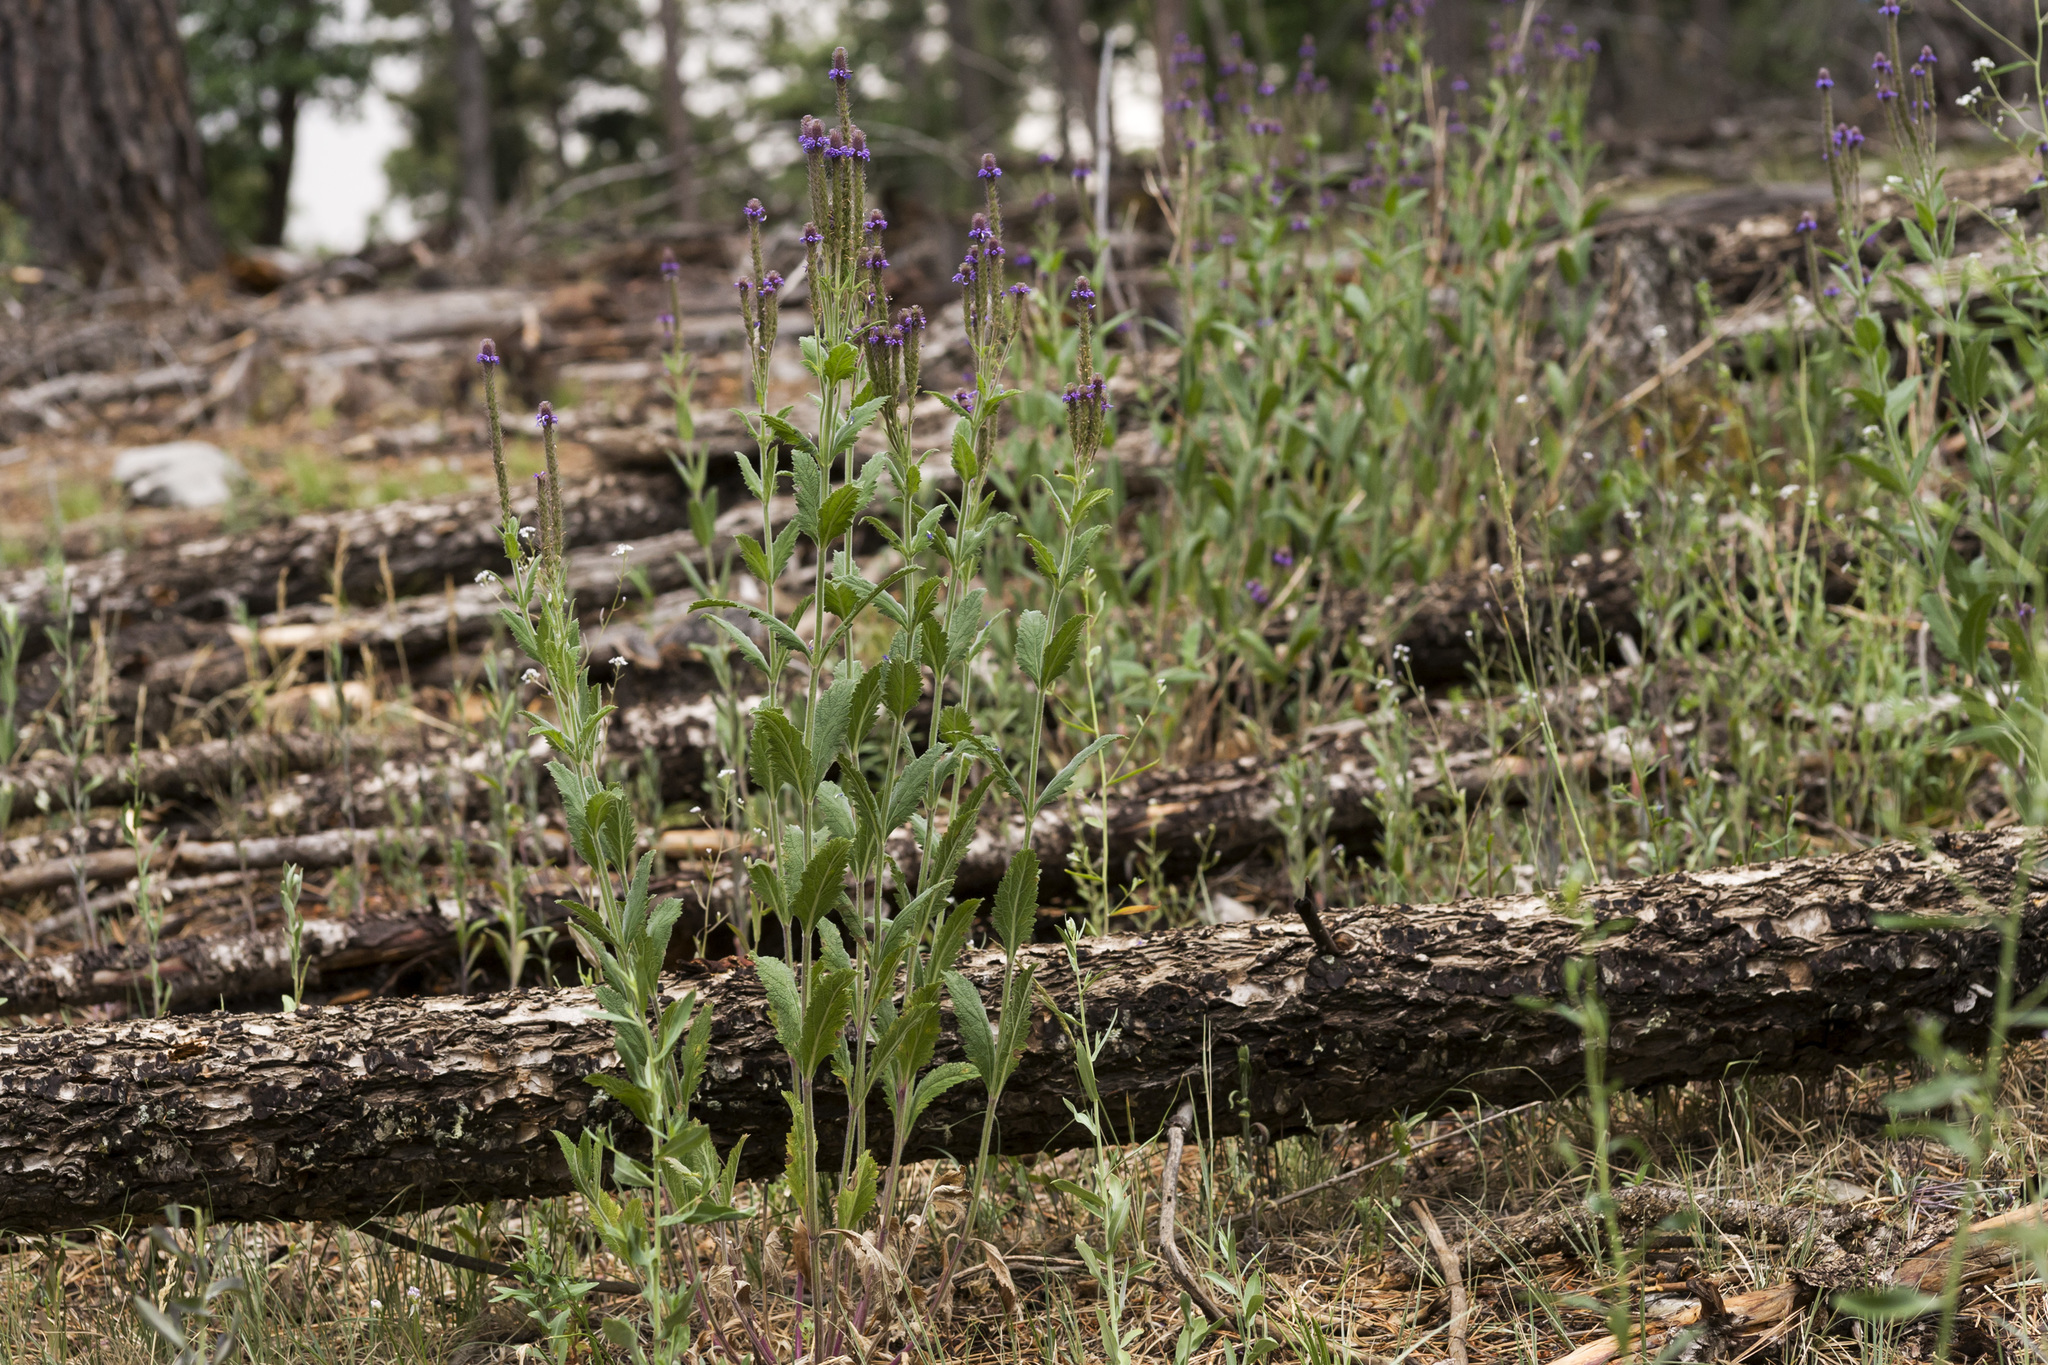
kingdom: Plantae
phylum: Tracheophyta
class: Magnoliopsida
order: Lamiales
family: Verbenaceae
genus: Verbena
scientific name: Verbena macdougalii
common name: New mexico vervain
